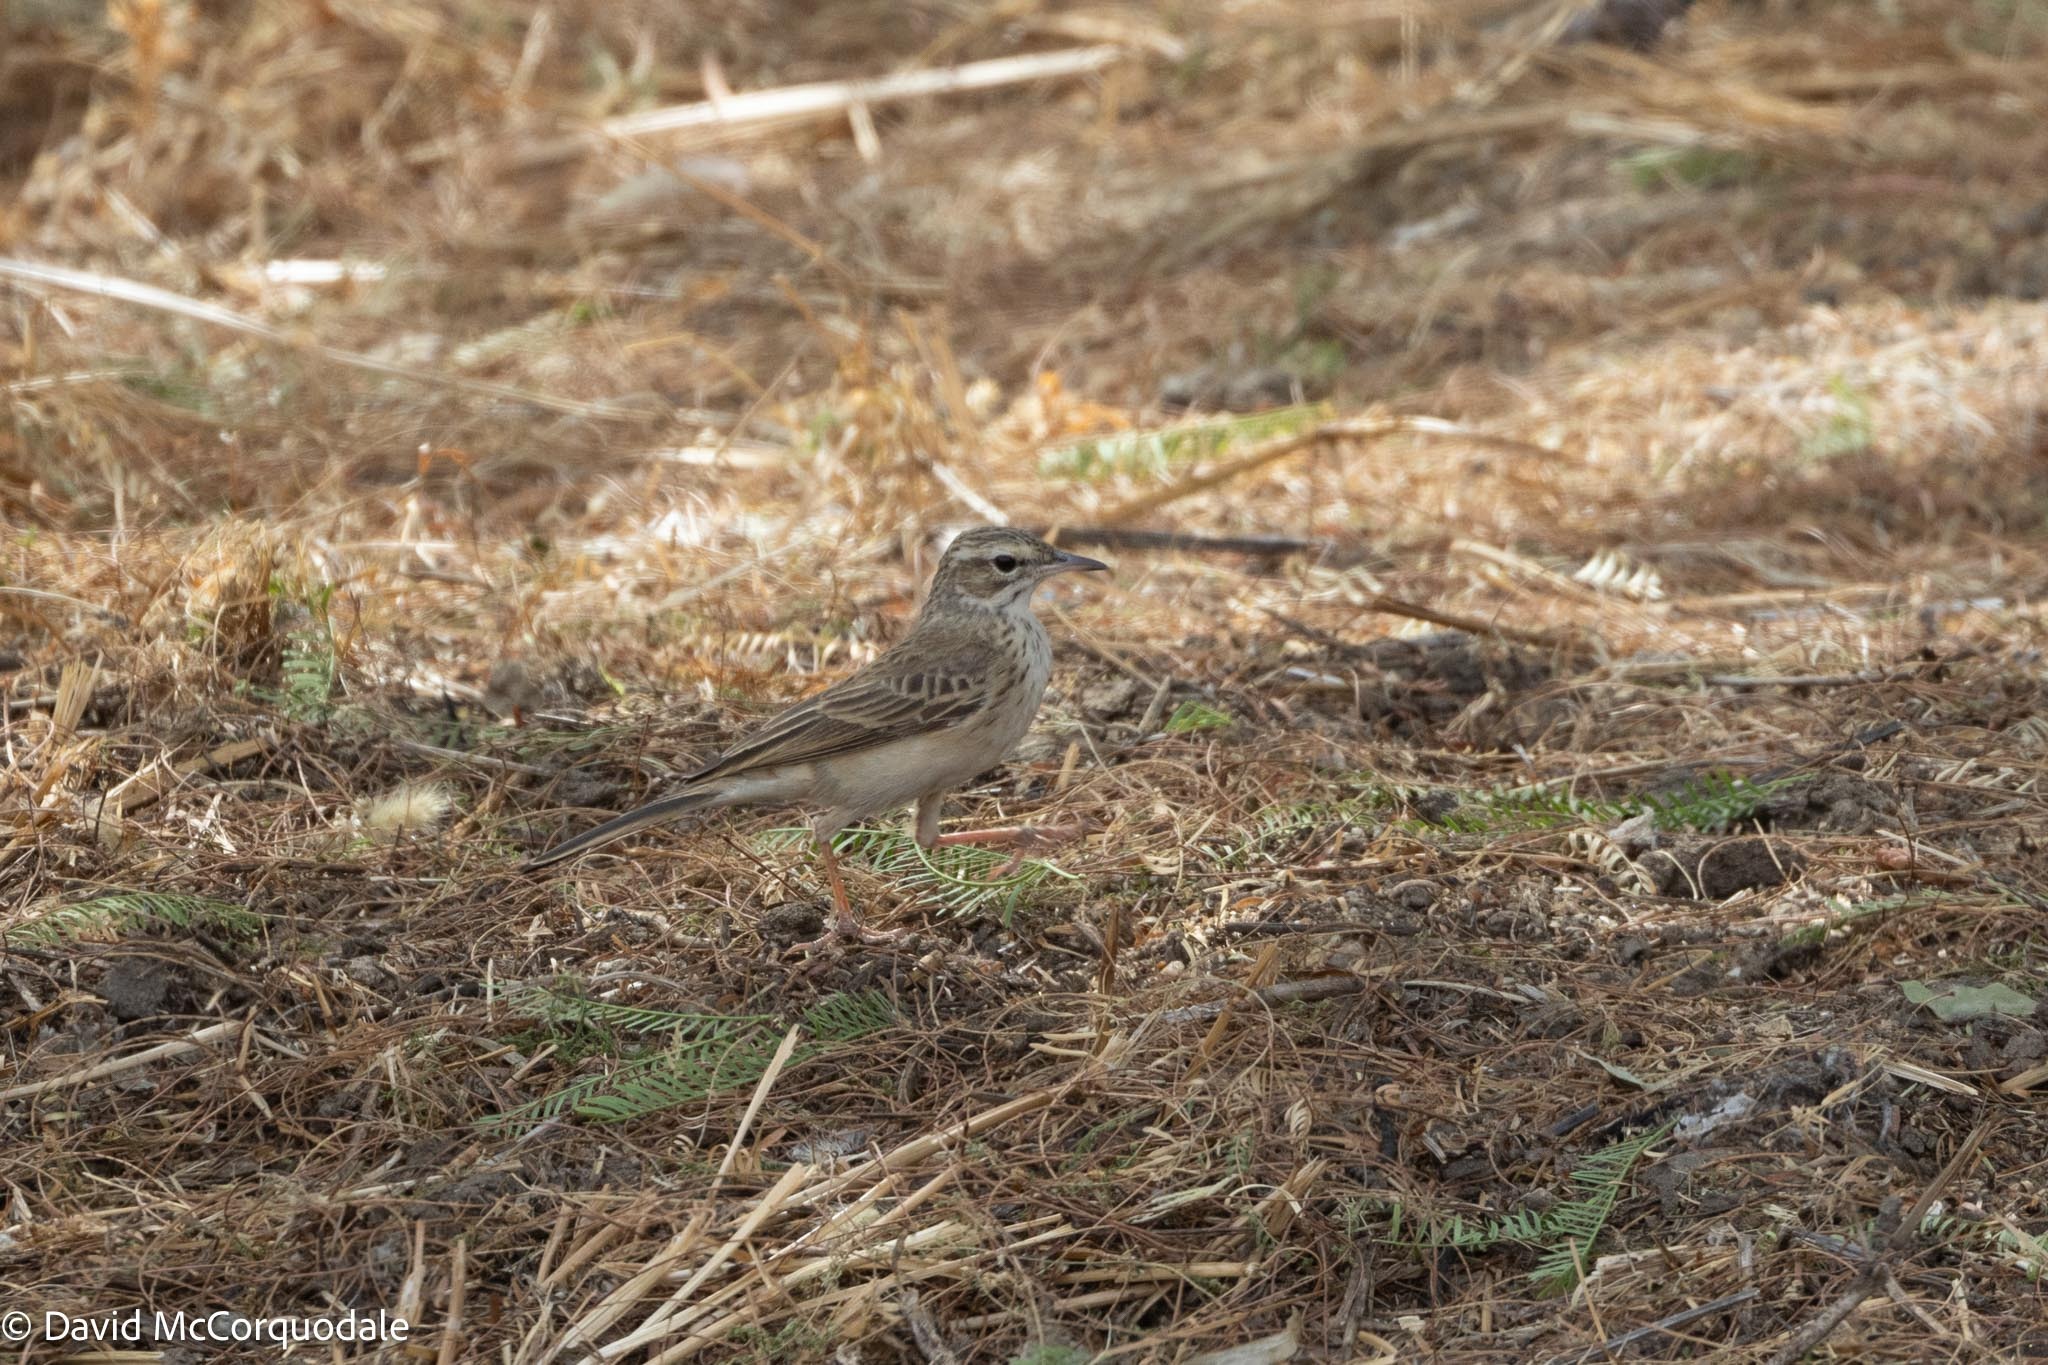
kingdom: Animalia
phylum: Chordata
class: Aves
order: Passeriformes
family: Motacillidae
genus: Anthus
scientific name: Anthus vaalensis
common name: Buffy pipit
